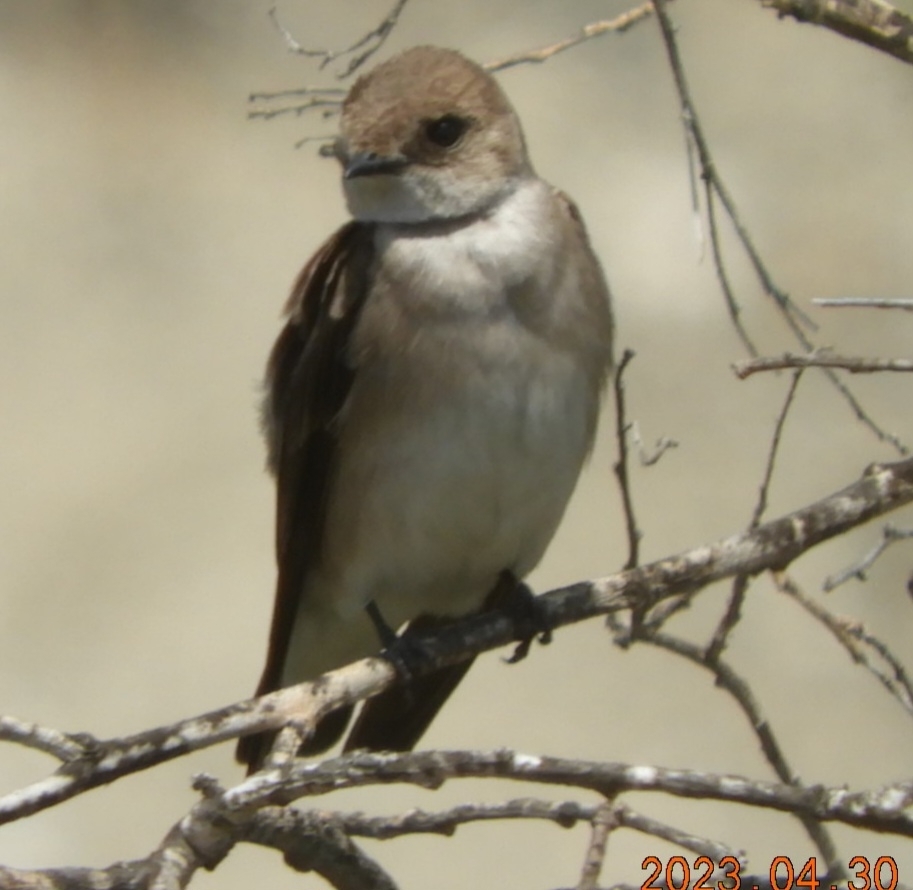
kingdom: Animalia
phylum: Chordata
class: Aves
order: Passeriformes
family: Hirundinidae
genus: Stelgidopteryx
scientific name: Stelgidopteryx serripennis
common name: Northern rough-winged swallow
